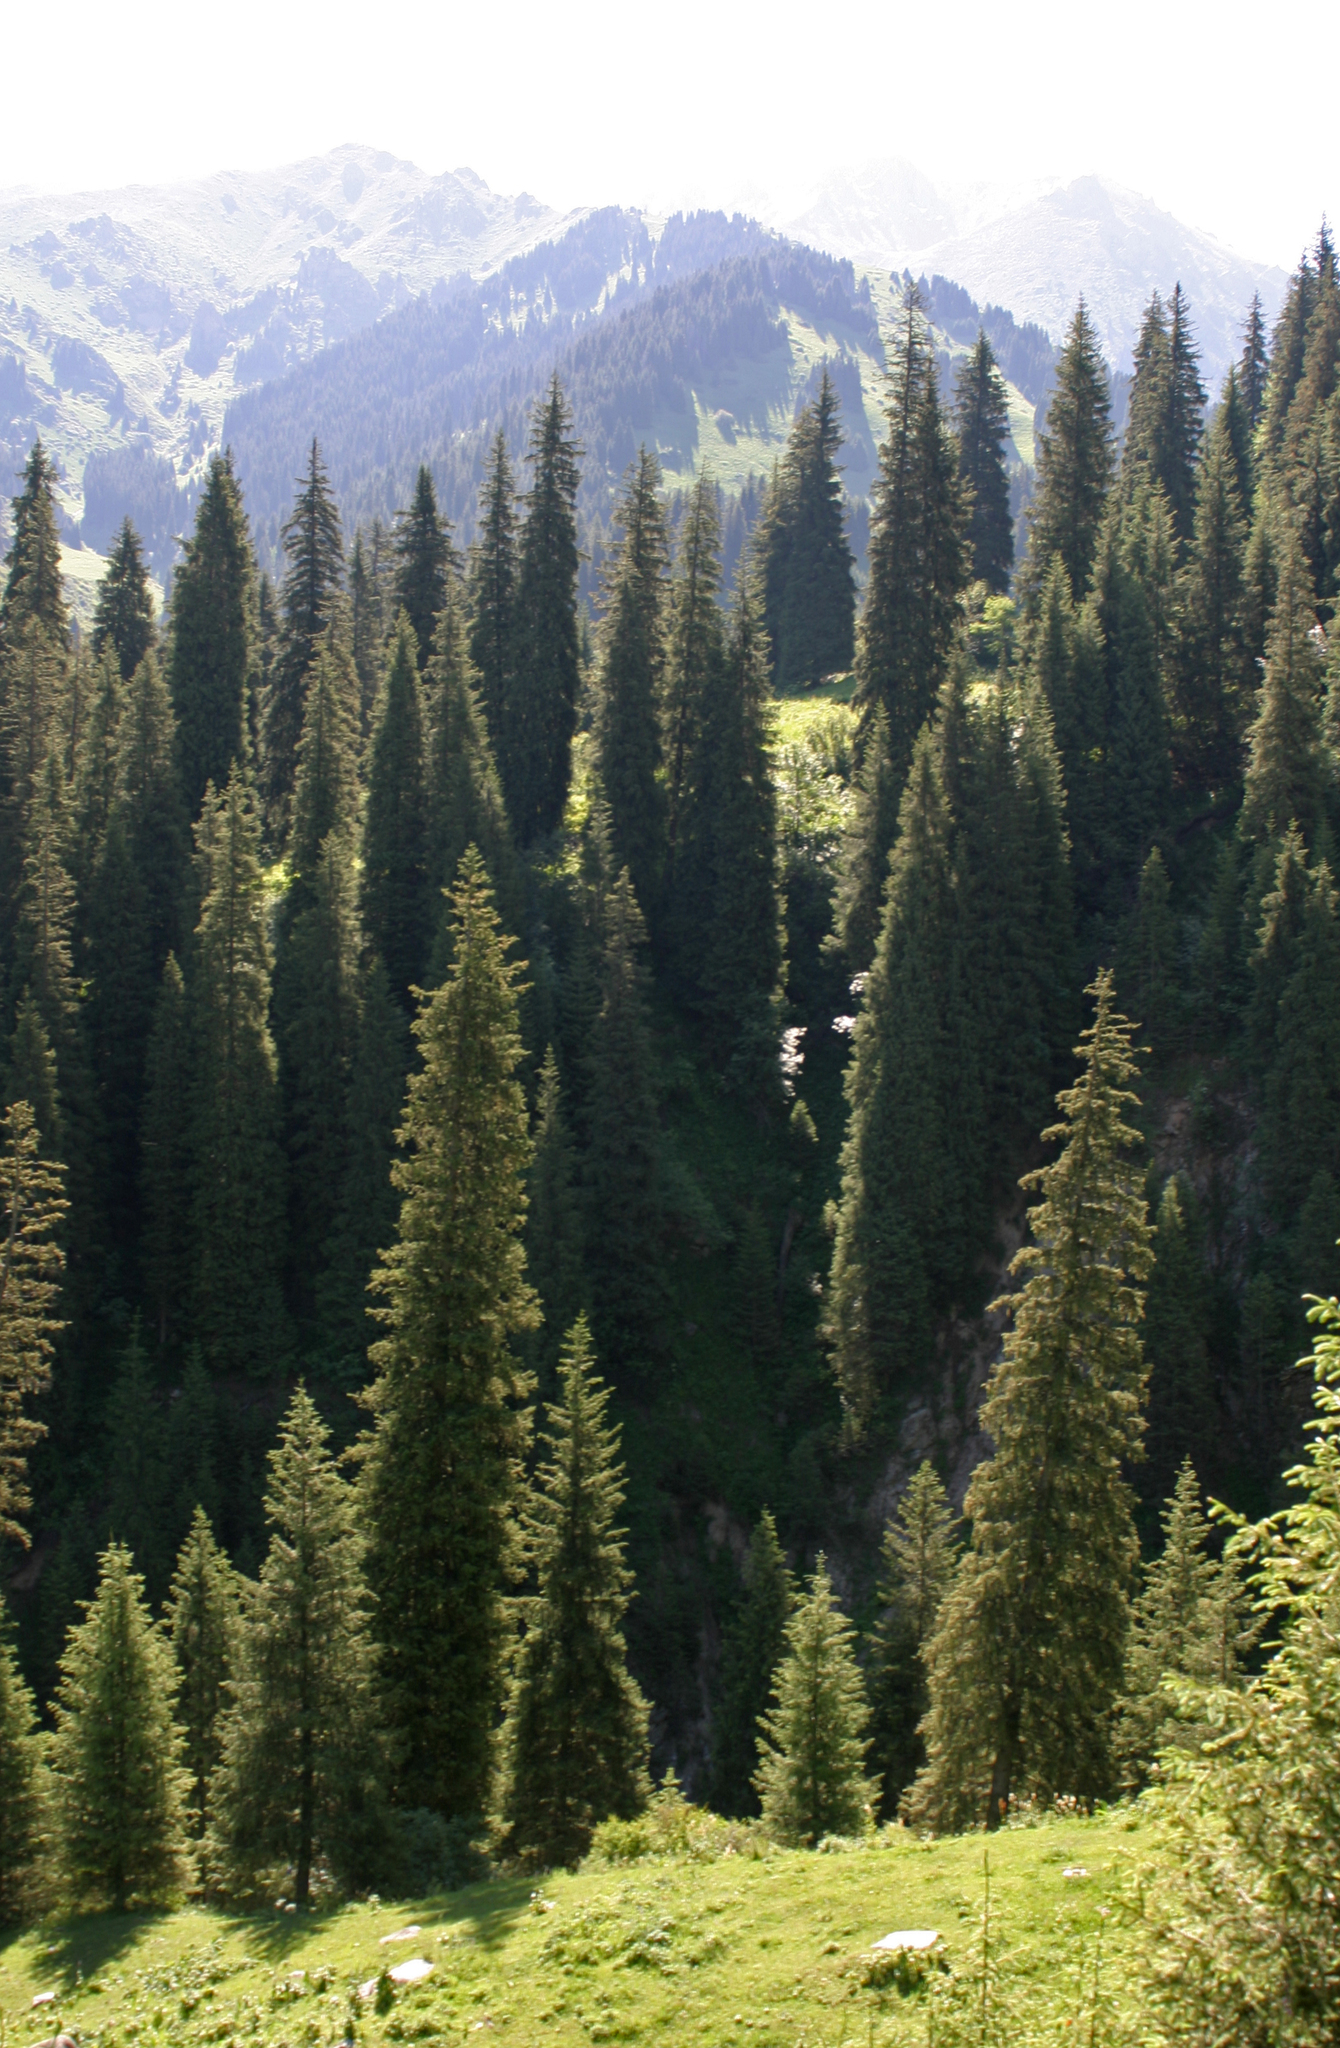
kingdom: Plantae
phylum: Tracheophyta
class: Pinopsida
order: Pinales
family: Pinaceae
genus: Picea
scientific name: Picea schrenkiana
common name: Asian spruce
